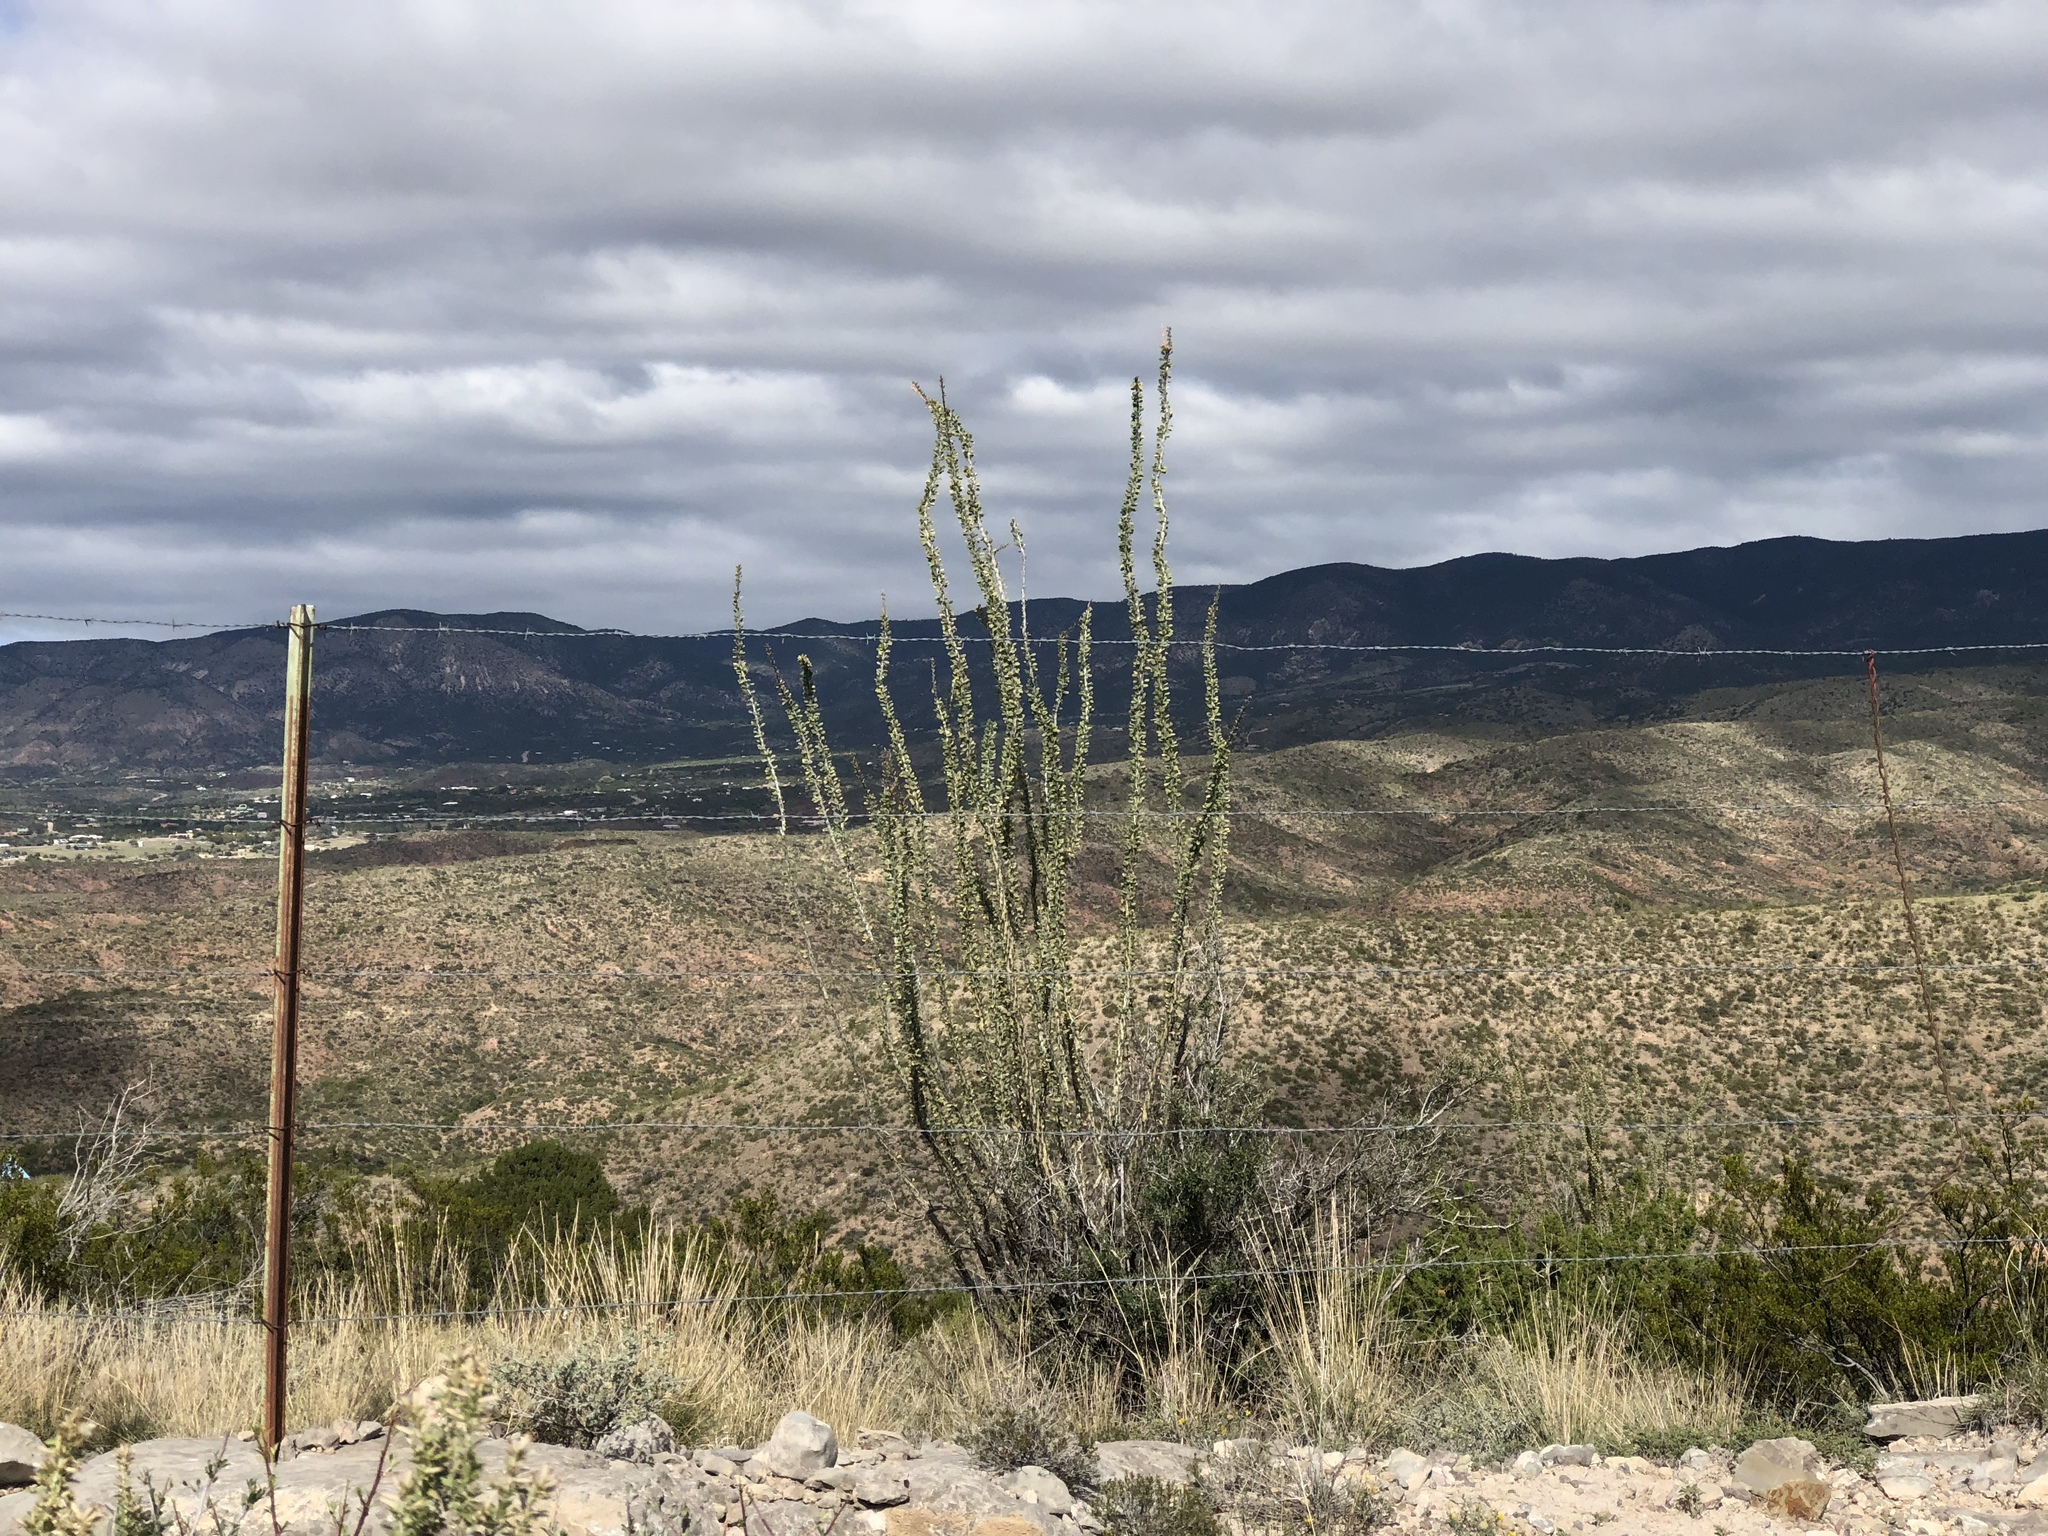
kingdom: Plantae
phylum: Tracheophyta
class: Magnoliopsida
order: Ericales
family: Fouquieriaceae
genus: Fouquieria
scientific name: Fouquieria splendens
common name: Vine-cactus
